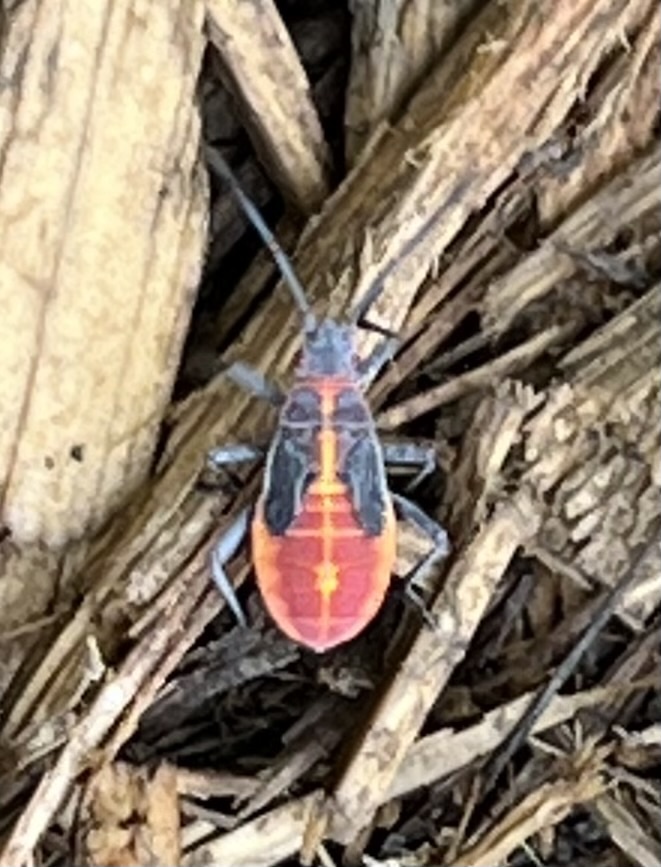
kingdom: Animalia
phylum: Arthropoda
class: Insecta
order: Hemiptera
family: Rhopalidae
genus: Boisea
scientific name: Boisea trivittata
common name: Boxelder bug
